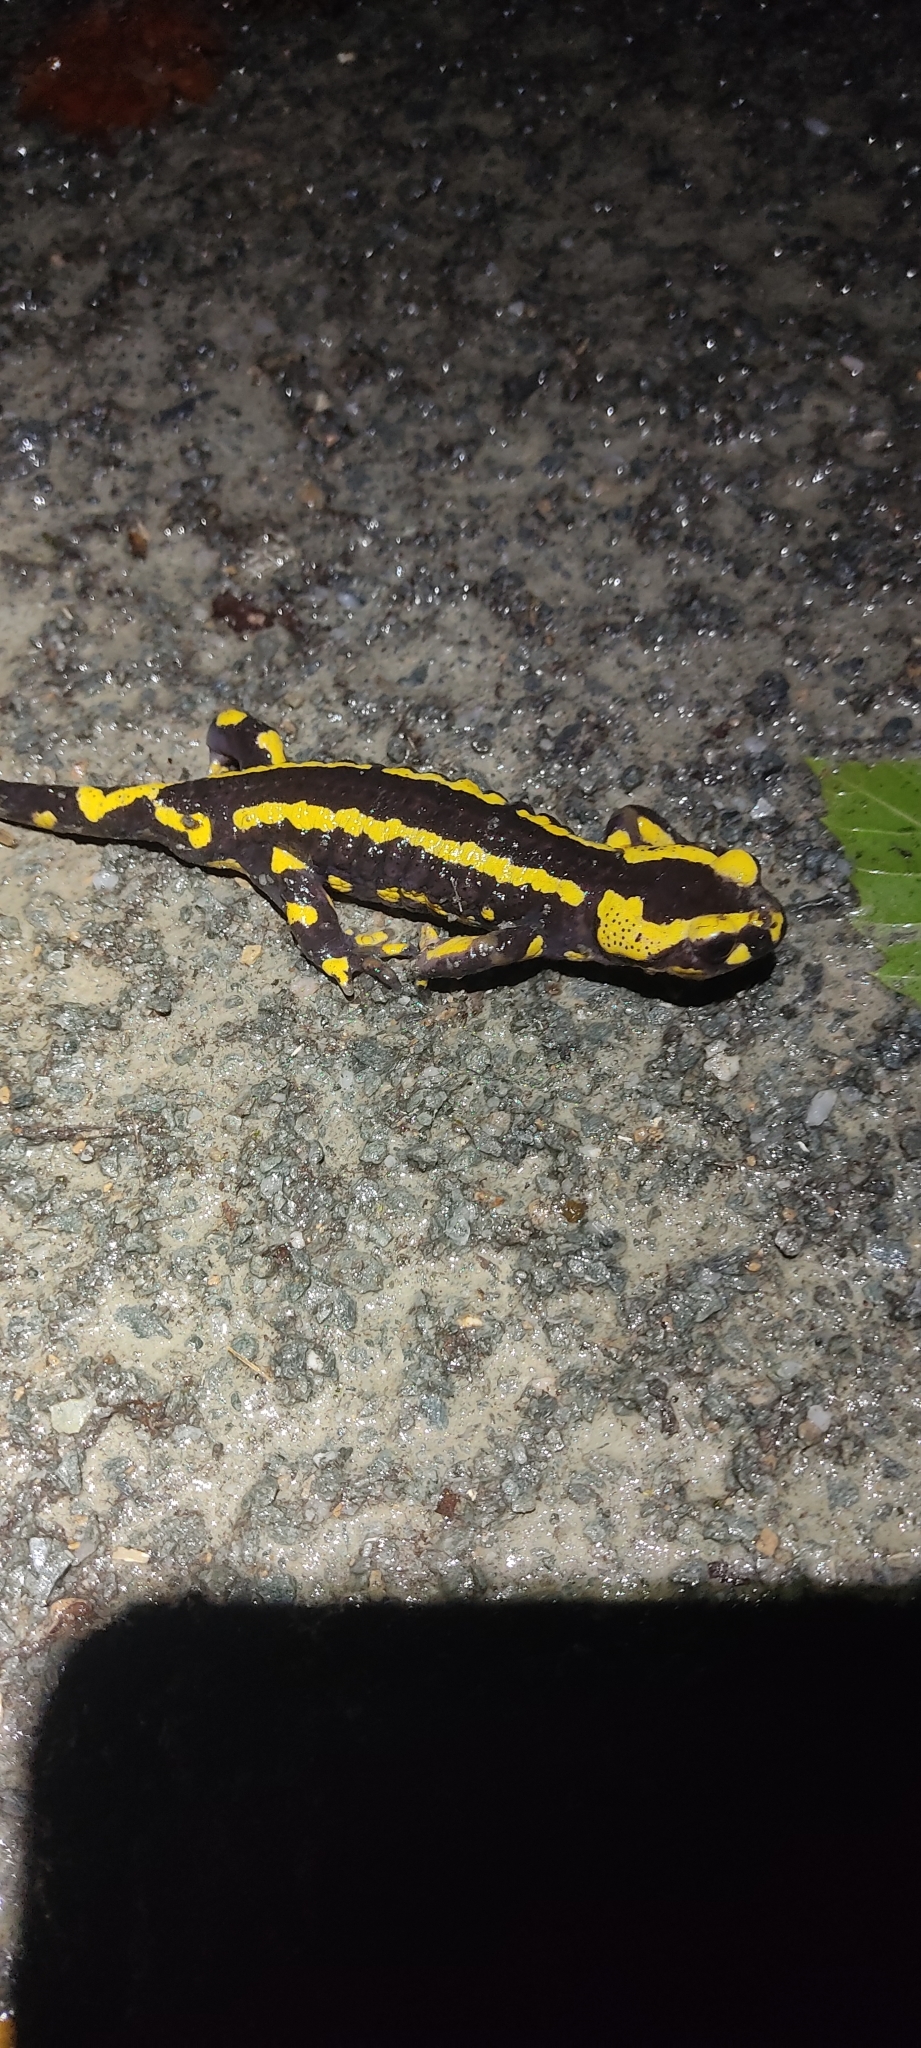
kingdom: Animalia
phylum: Chordata
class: Amphibia
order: Caudata
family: Salamandridae
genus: Salamandra
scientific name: Salamandra salamandra
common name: Fire salamander
